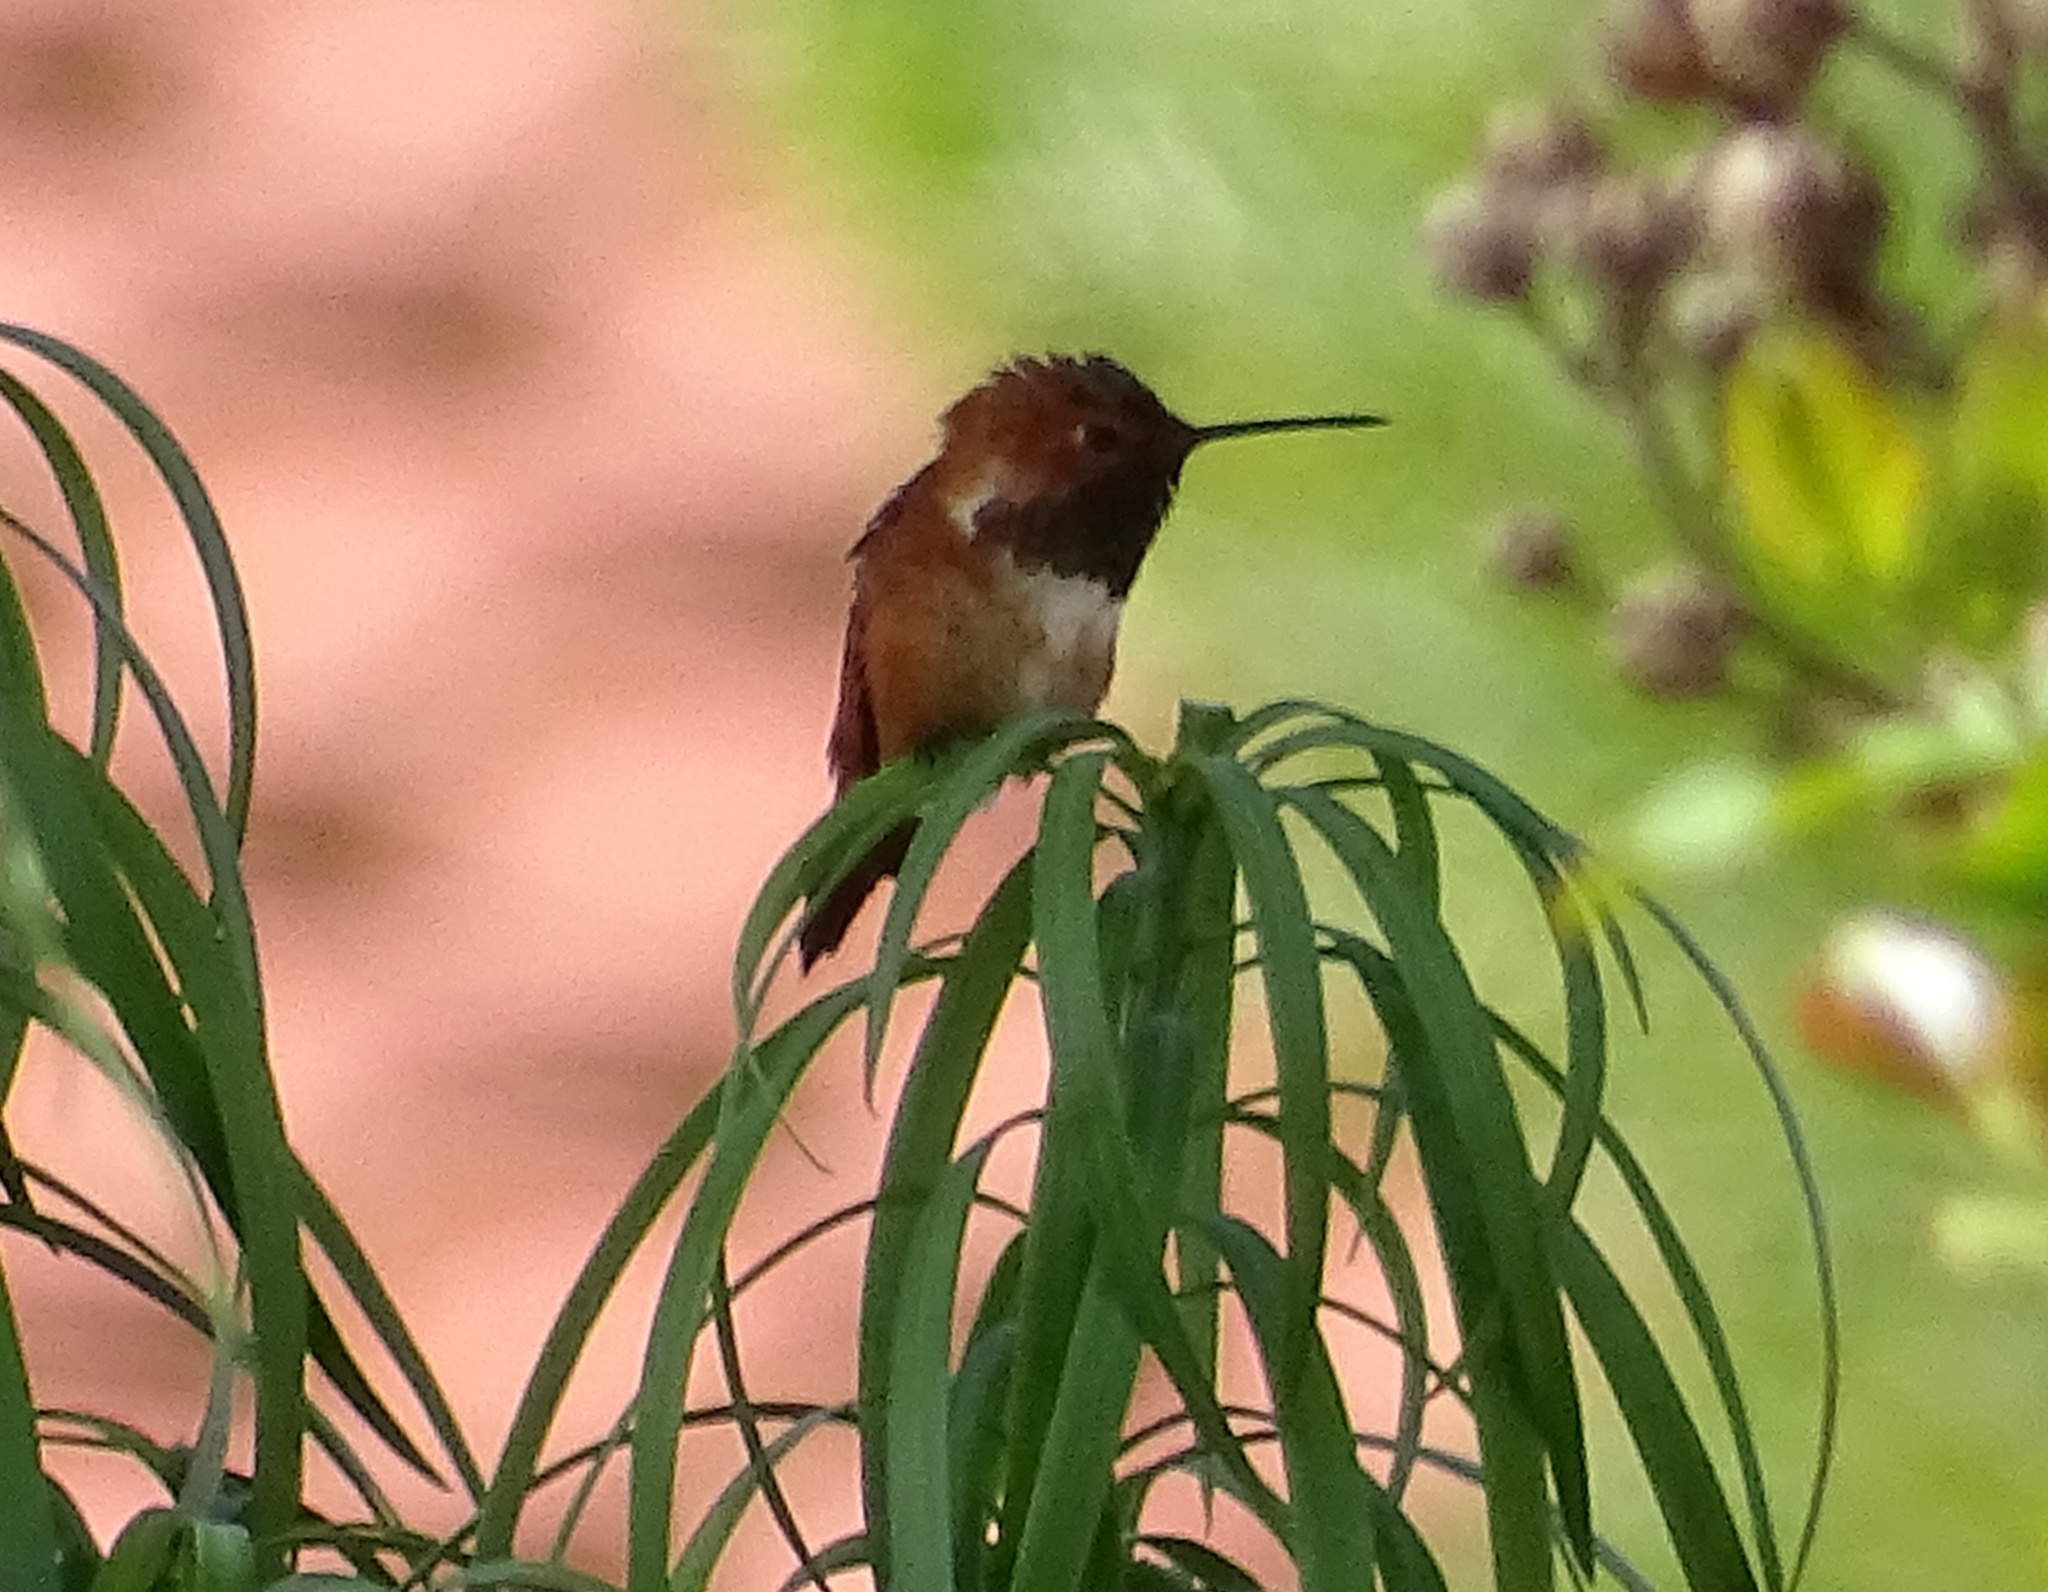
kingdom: Animalia
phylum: Chordata
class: Aves
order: Apodiformes
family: Trochilidae
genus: Selasphorus
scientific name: Selasphorus
